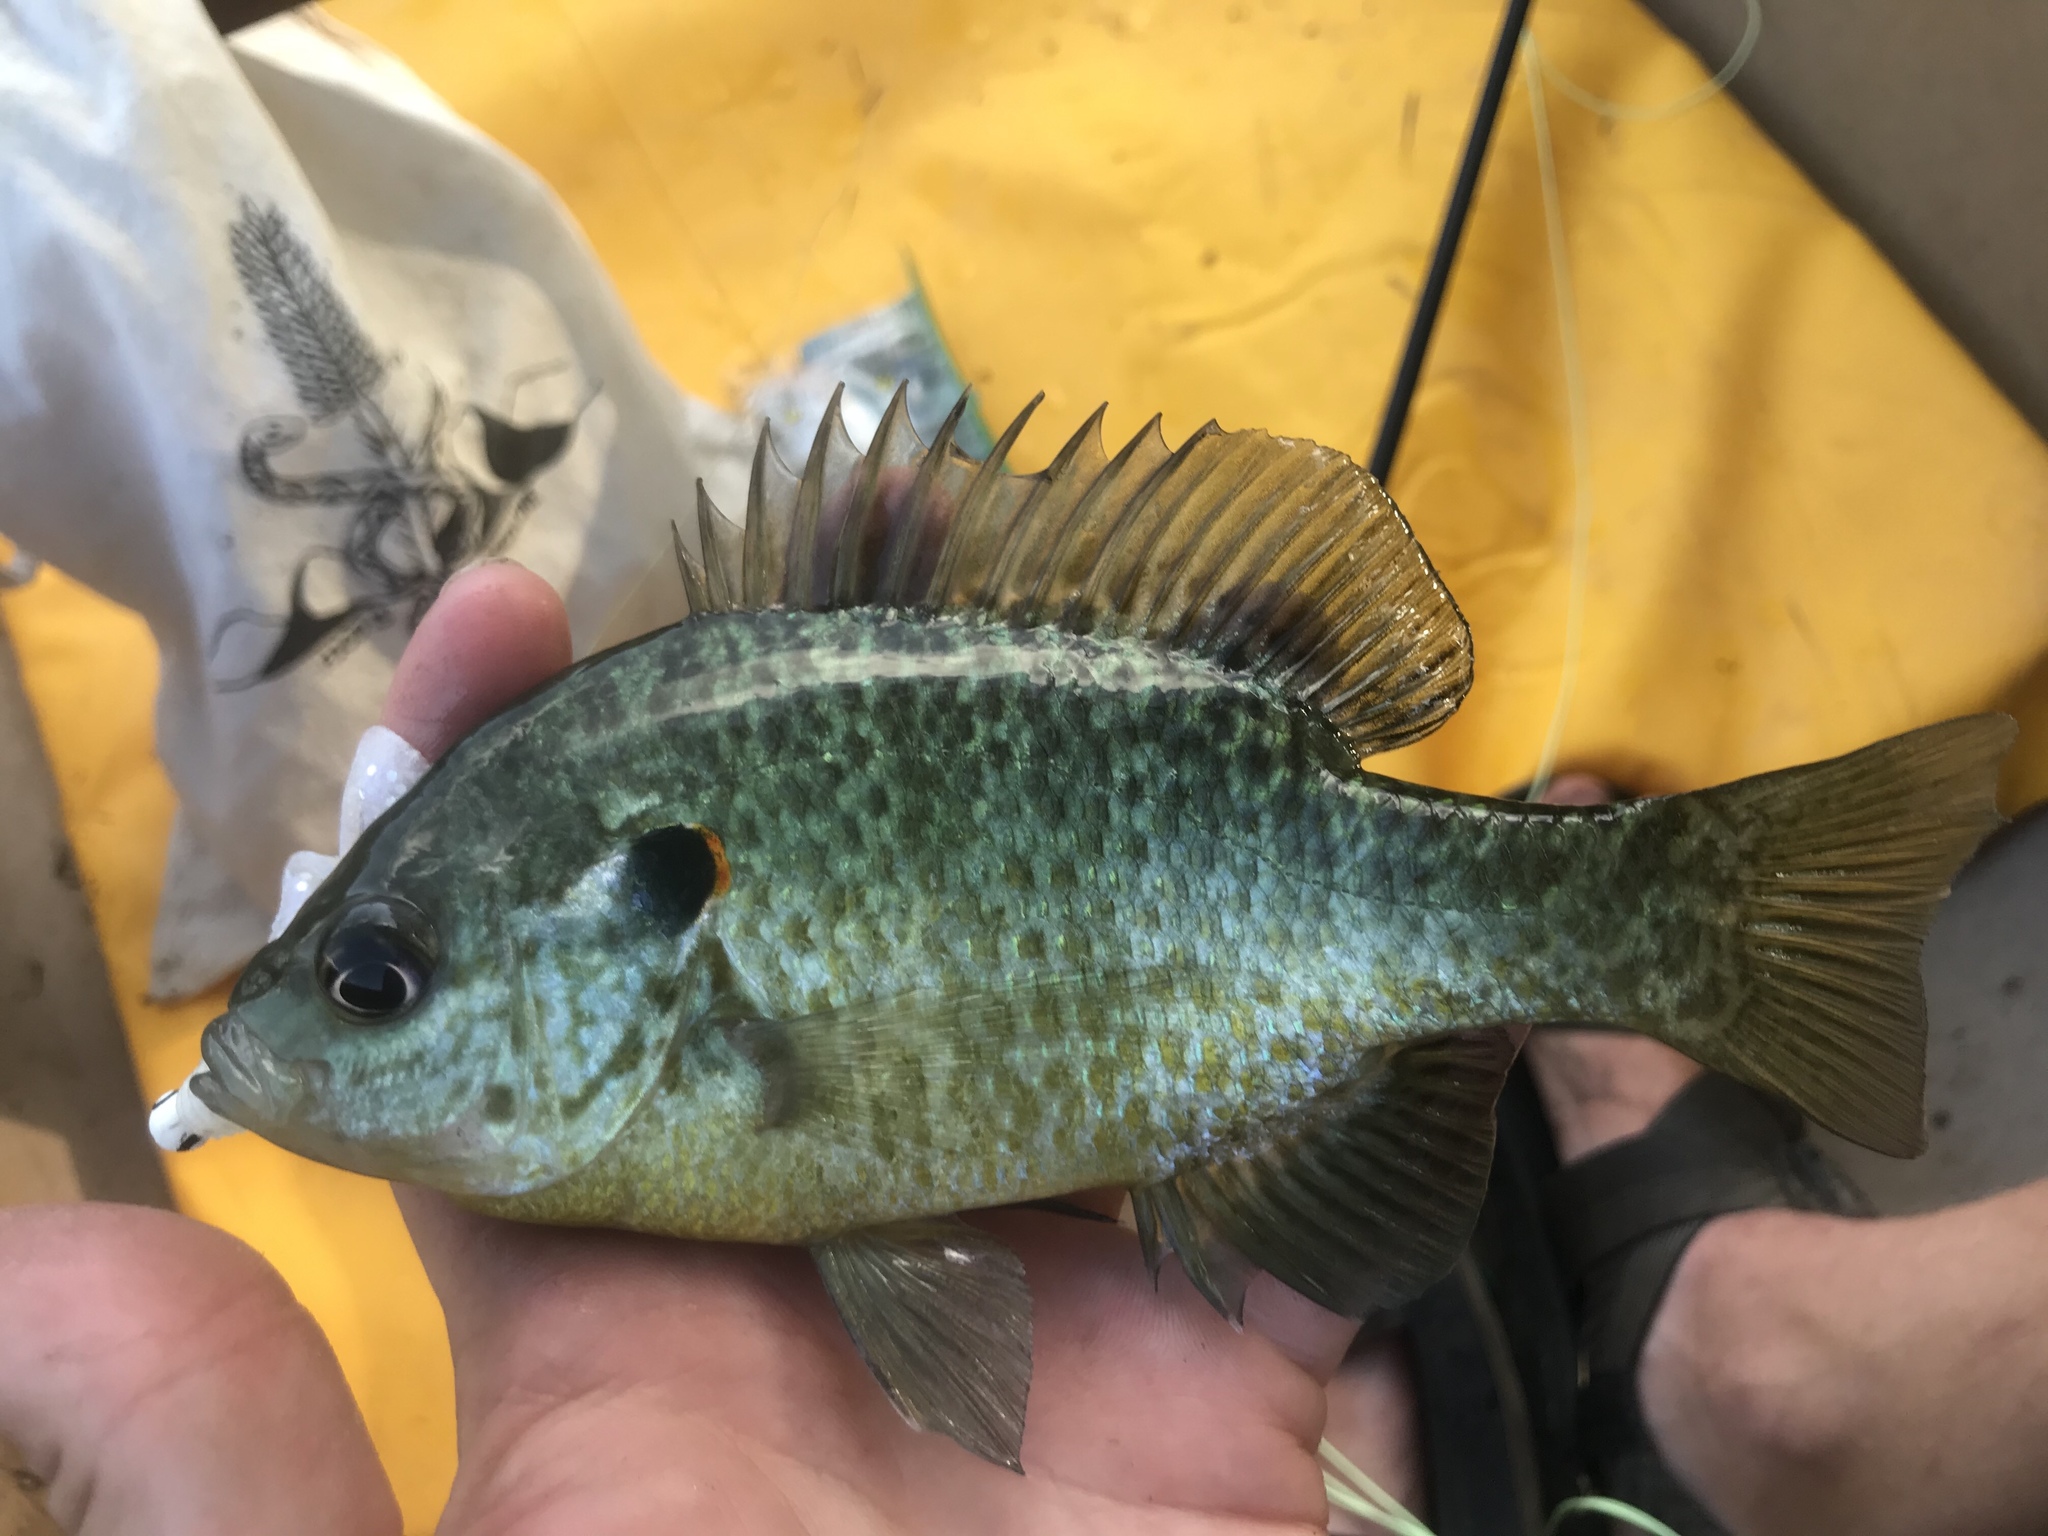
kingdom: Animalia
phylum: Chordata
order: Perciformes
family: Centrarchidae
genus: Lepomis
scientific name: Lepomis microlophus
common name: Redear sunfish
